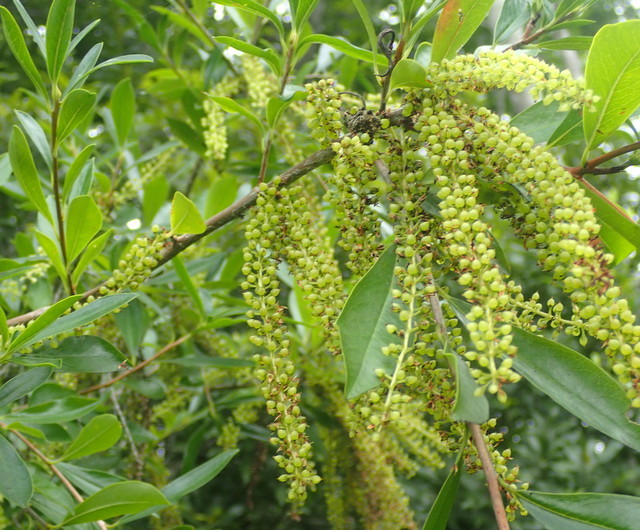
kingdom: Plantae
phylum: Tracheophyta
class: Magnoliopsida
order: Ericales
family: Cyrillaceae
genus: Cyrilla
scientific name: Cyrilla racemiflora
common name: Black titi
